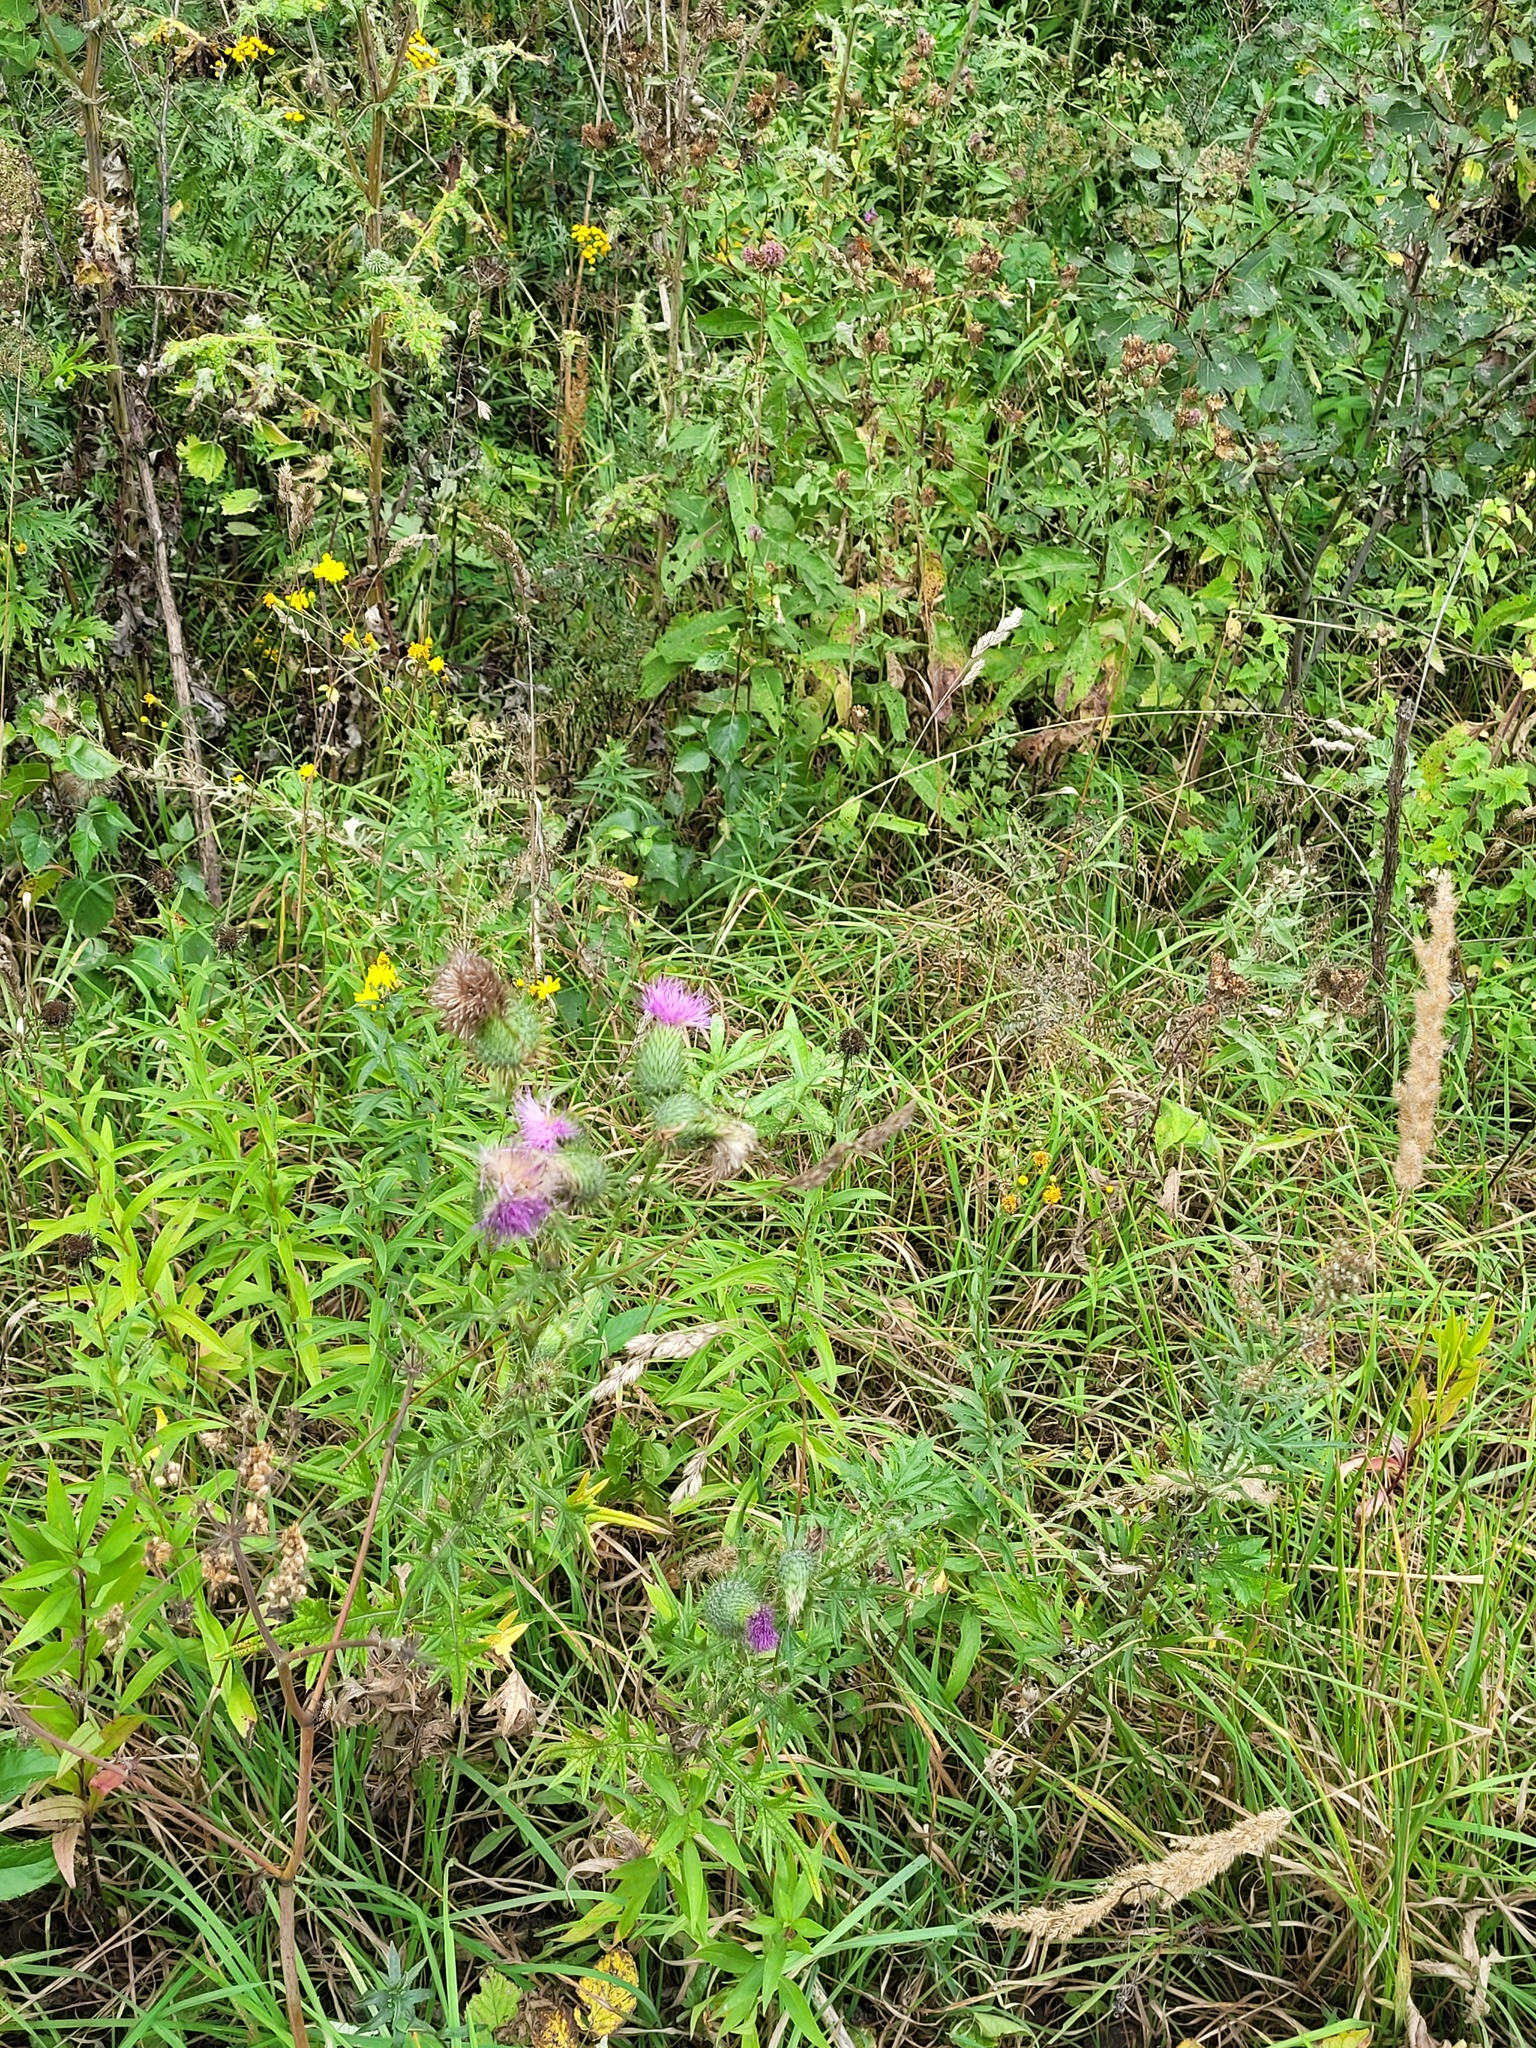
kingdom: Plantae
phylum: Tracheophyta
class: Magnoliopsida
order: Asterales
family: Asteraceae
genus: Cirsium
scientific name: Cirsium vulgare
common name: Bull thistle
